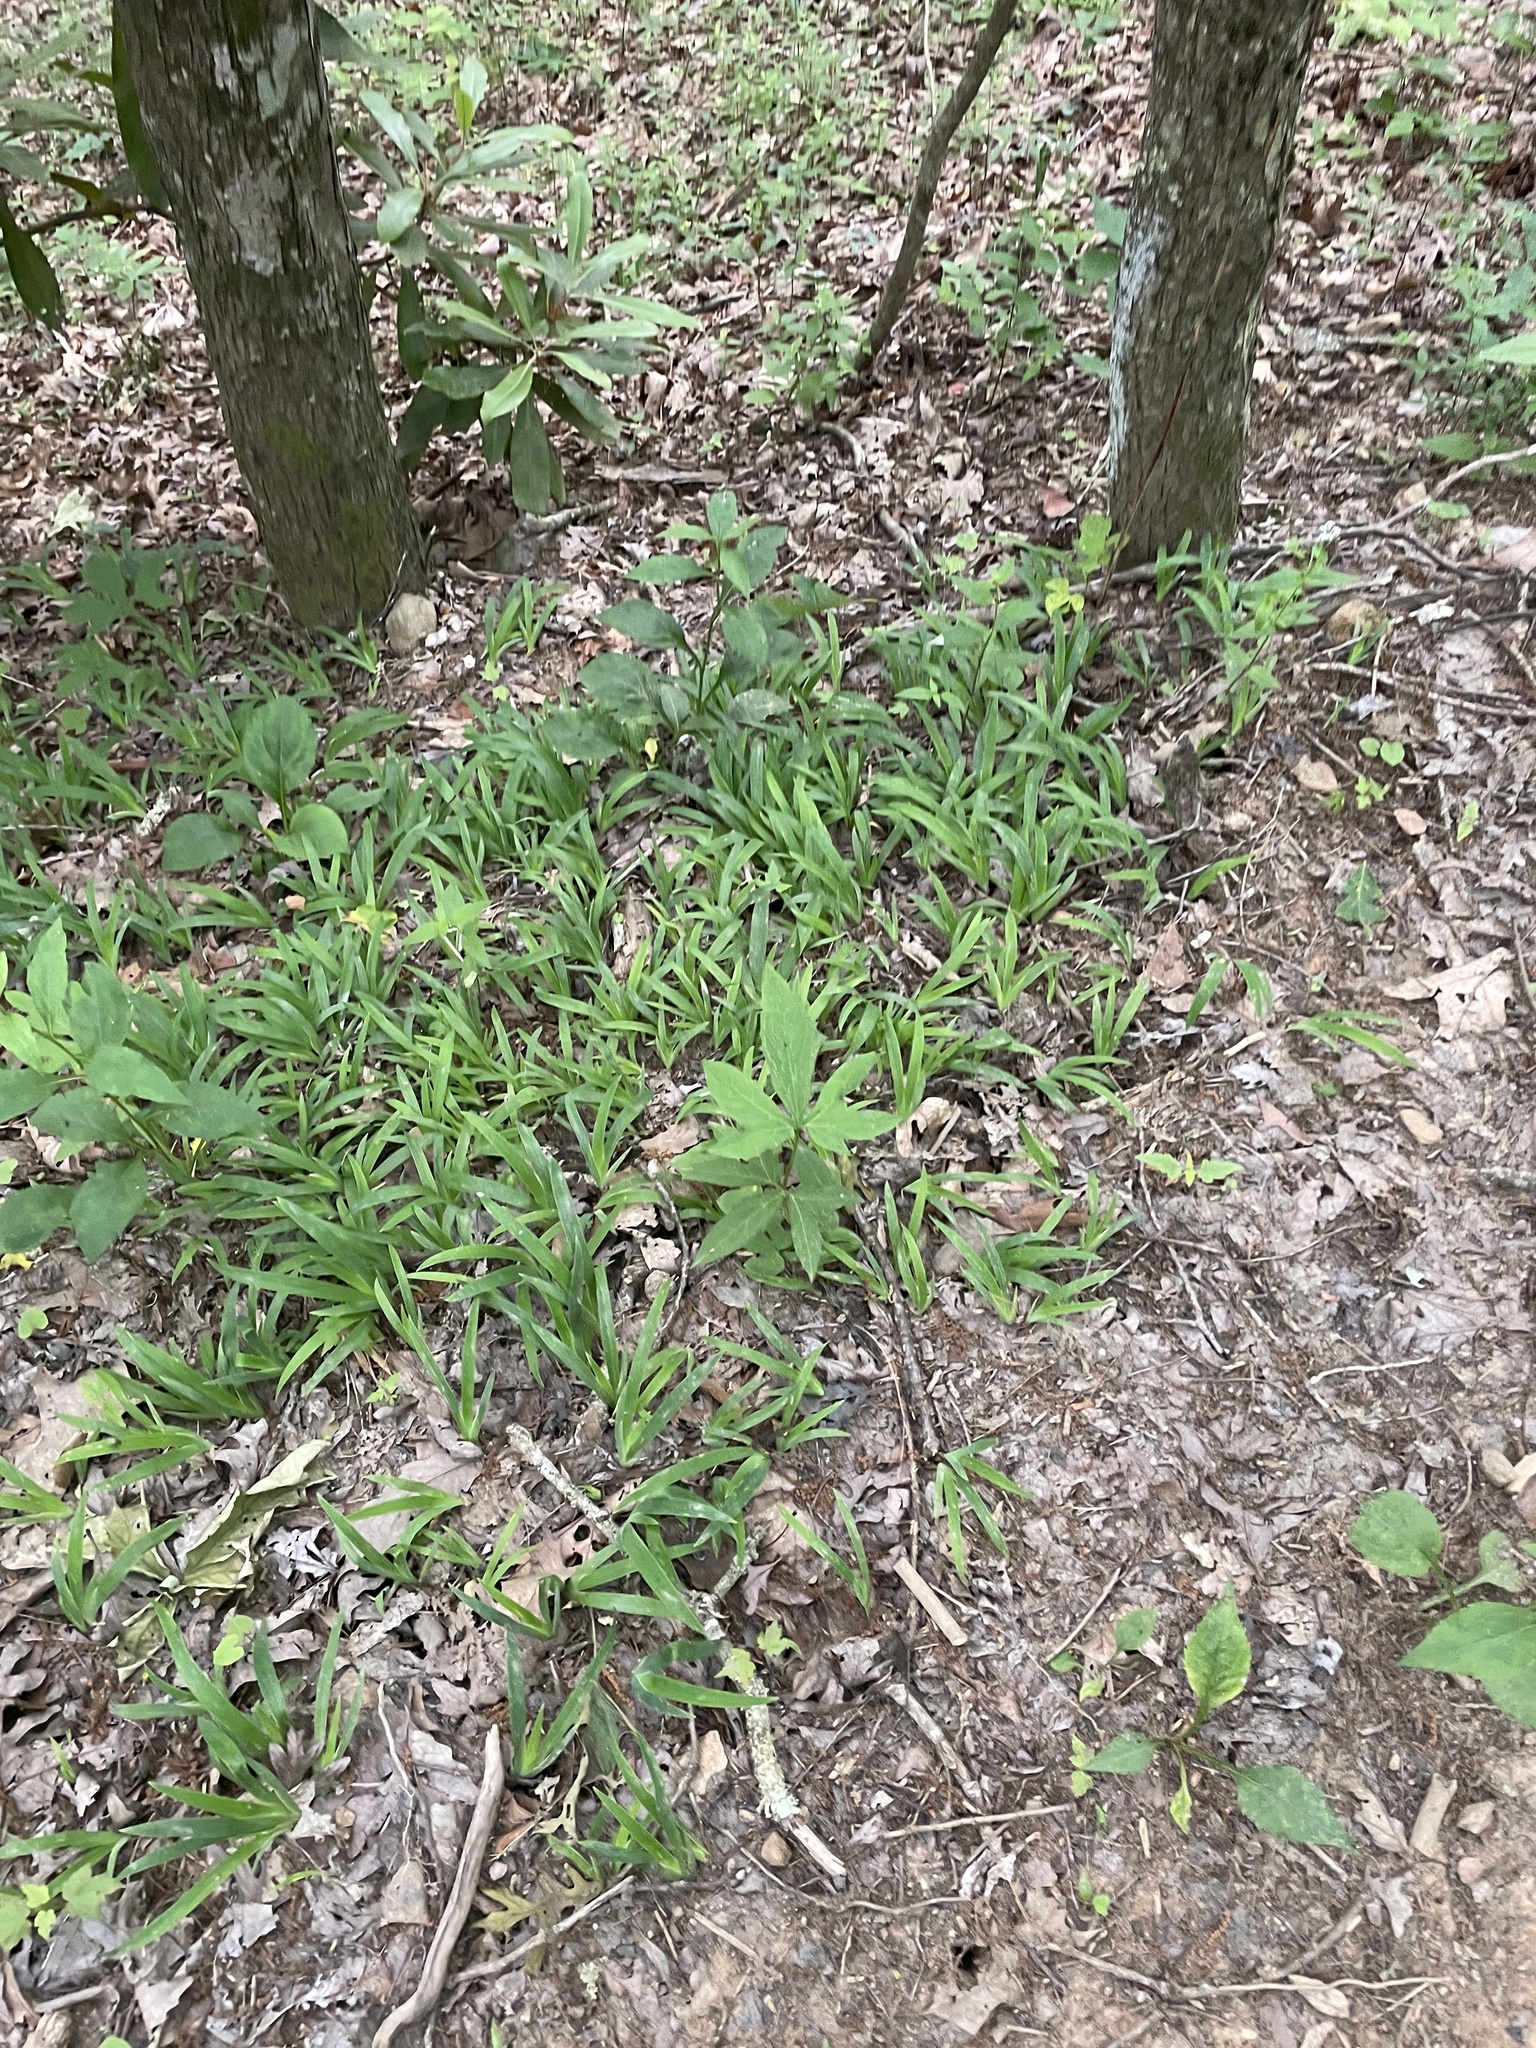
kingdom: Plantae
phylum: Tracheophyta
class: Liliopsida
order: Asparagales
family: Iridaceae
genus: Iris
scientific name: Iris cristata
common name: Crested iris
